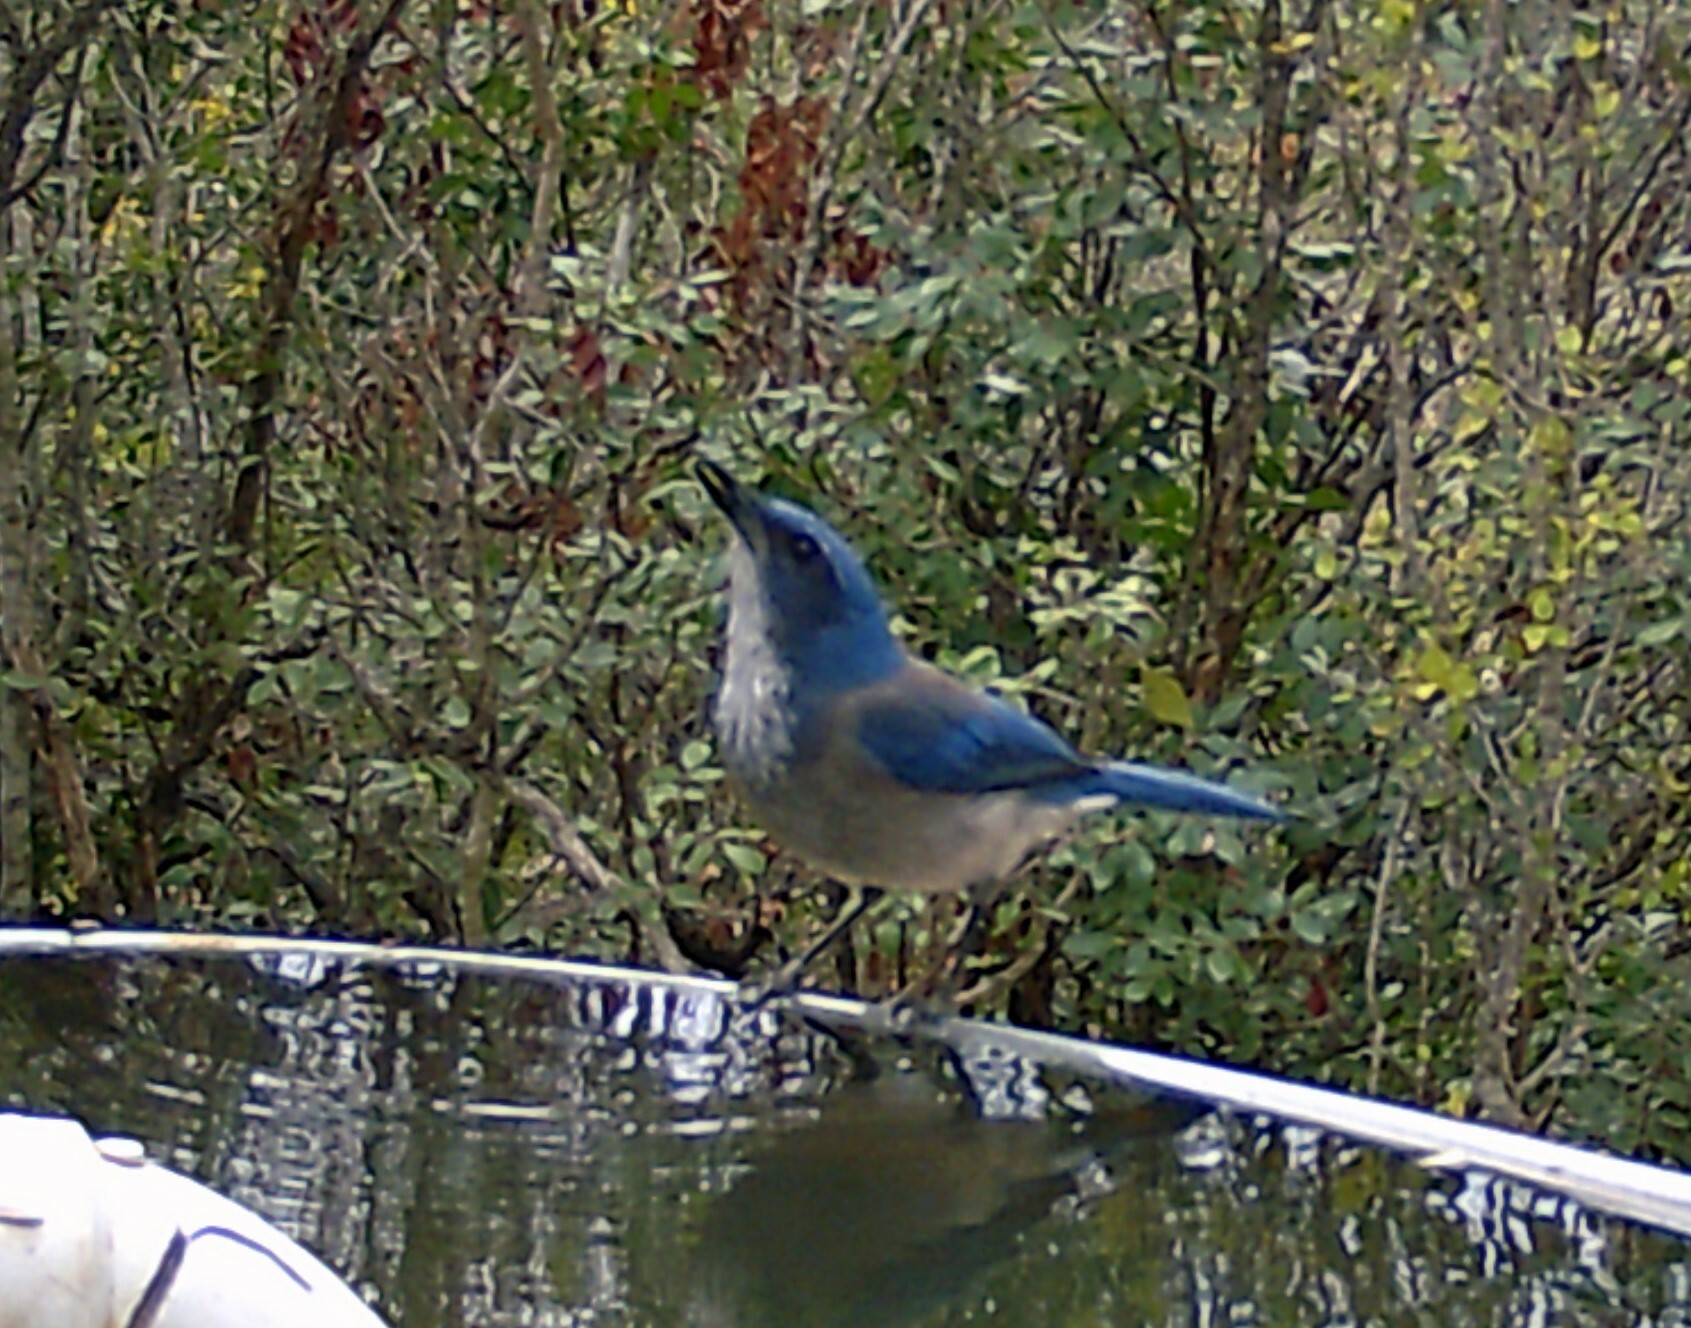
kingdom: Animalia
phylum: Chordata
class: Aves
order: Passeriformes
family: Corvidae
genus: Aphelocoma
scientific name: Aphelocoma woodhouseii
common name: Woodhouse's scrub-jay
